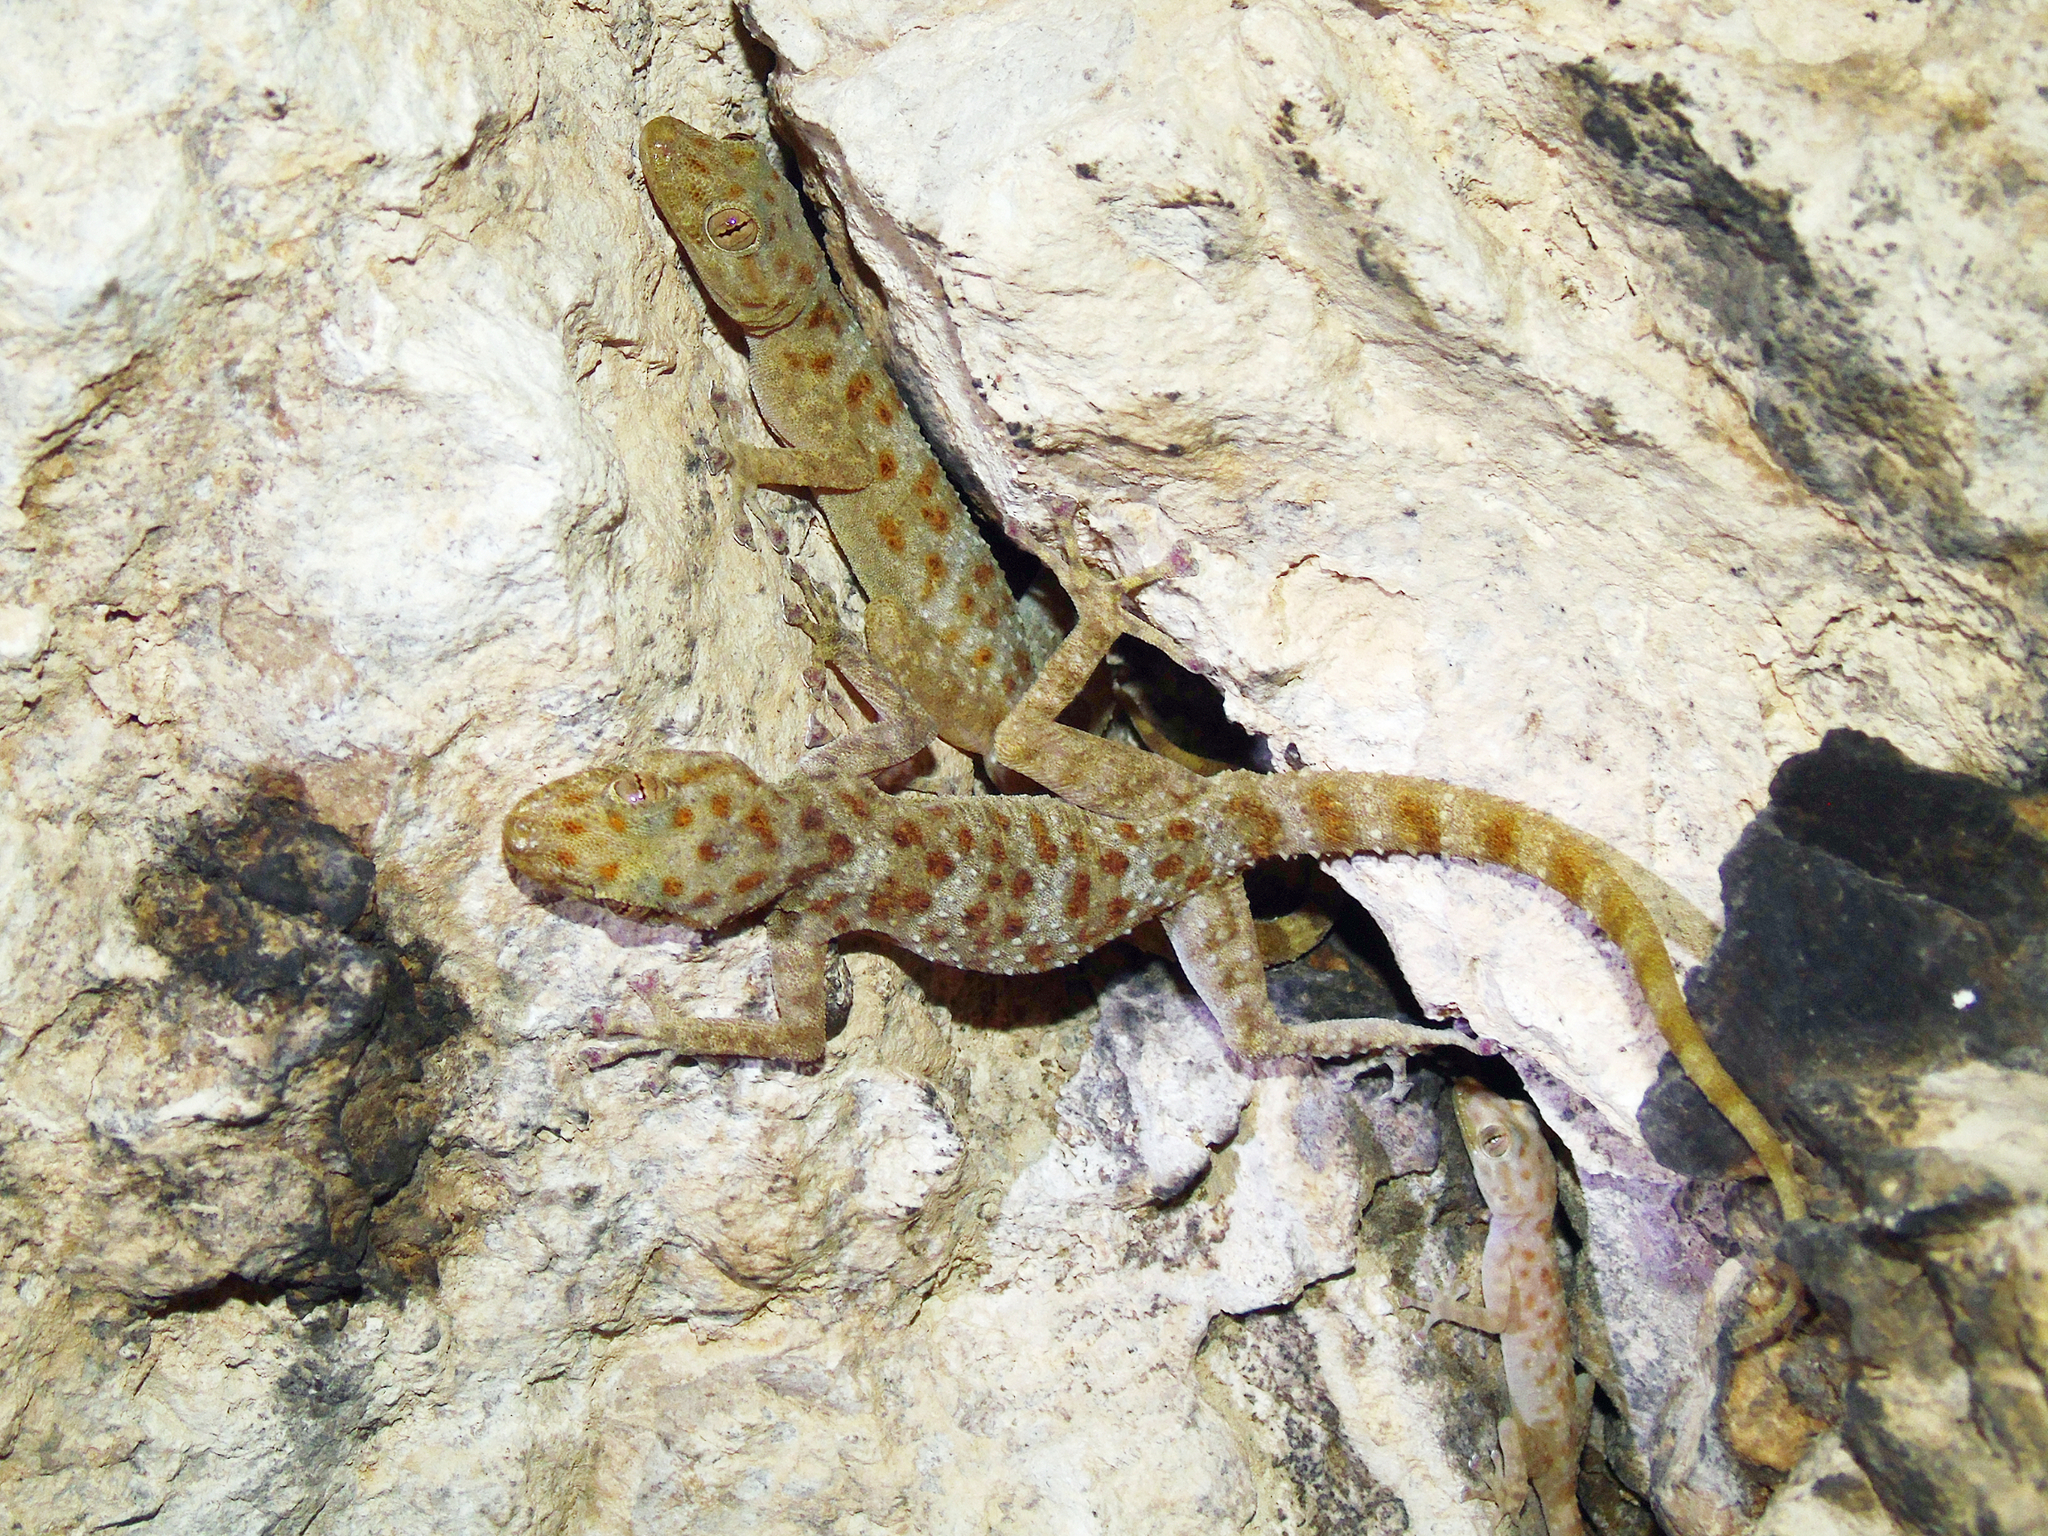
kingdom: Animalia
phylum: Chordata
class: Squamata
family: Phyllodactylidae
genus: Asaccus
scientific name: Asaccus griseonotus
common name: Gray-spotted leaf-toed gecko
